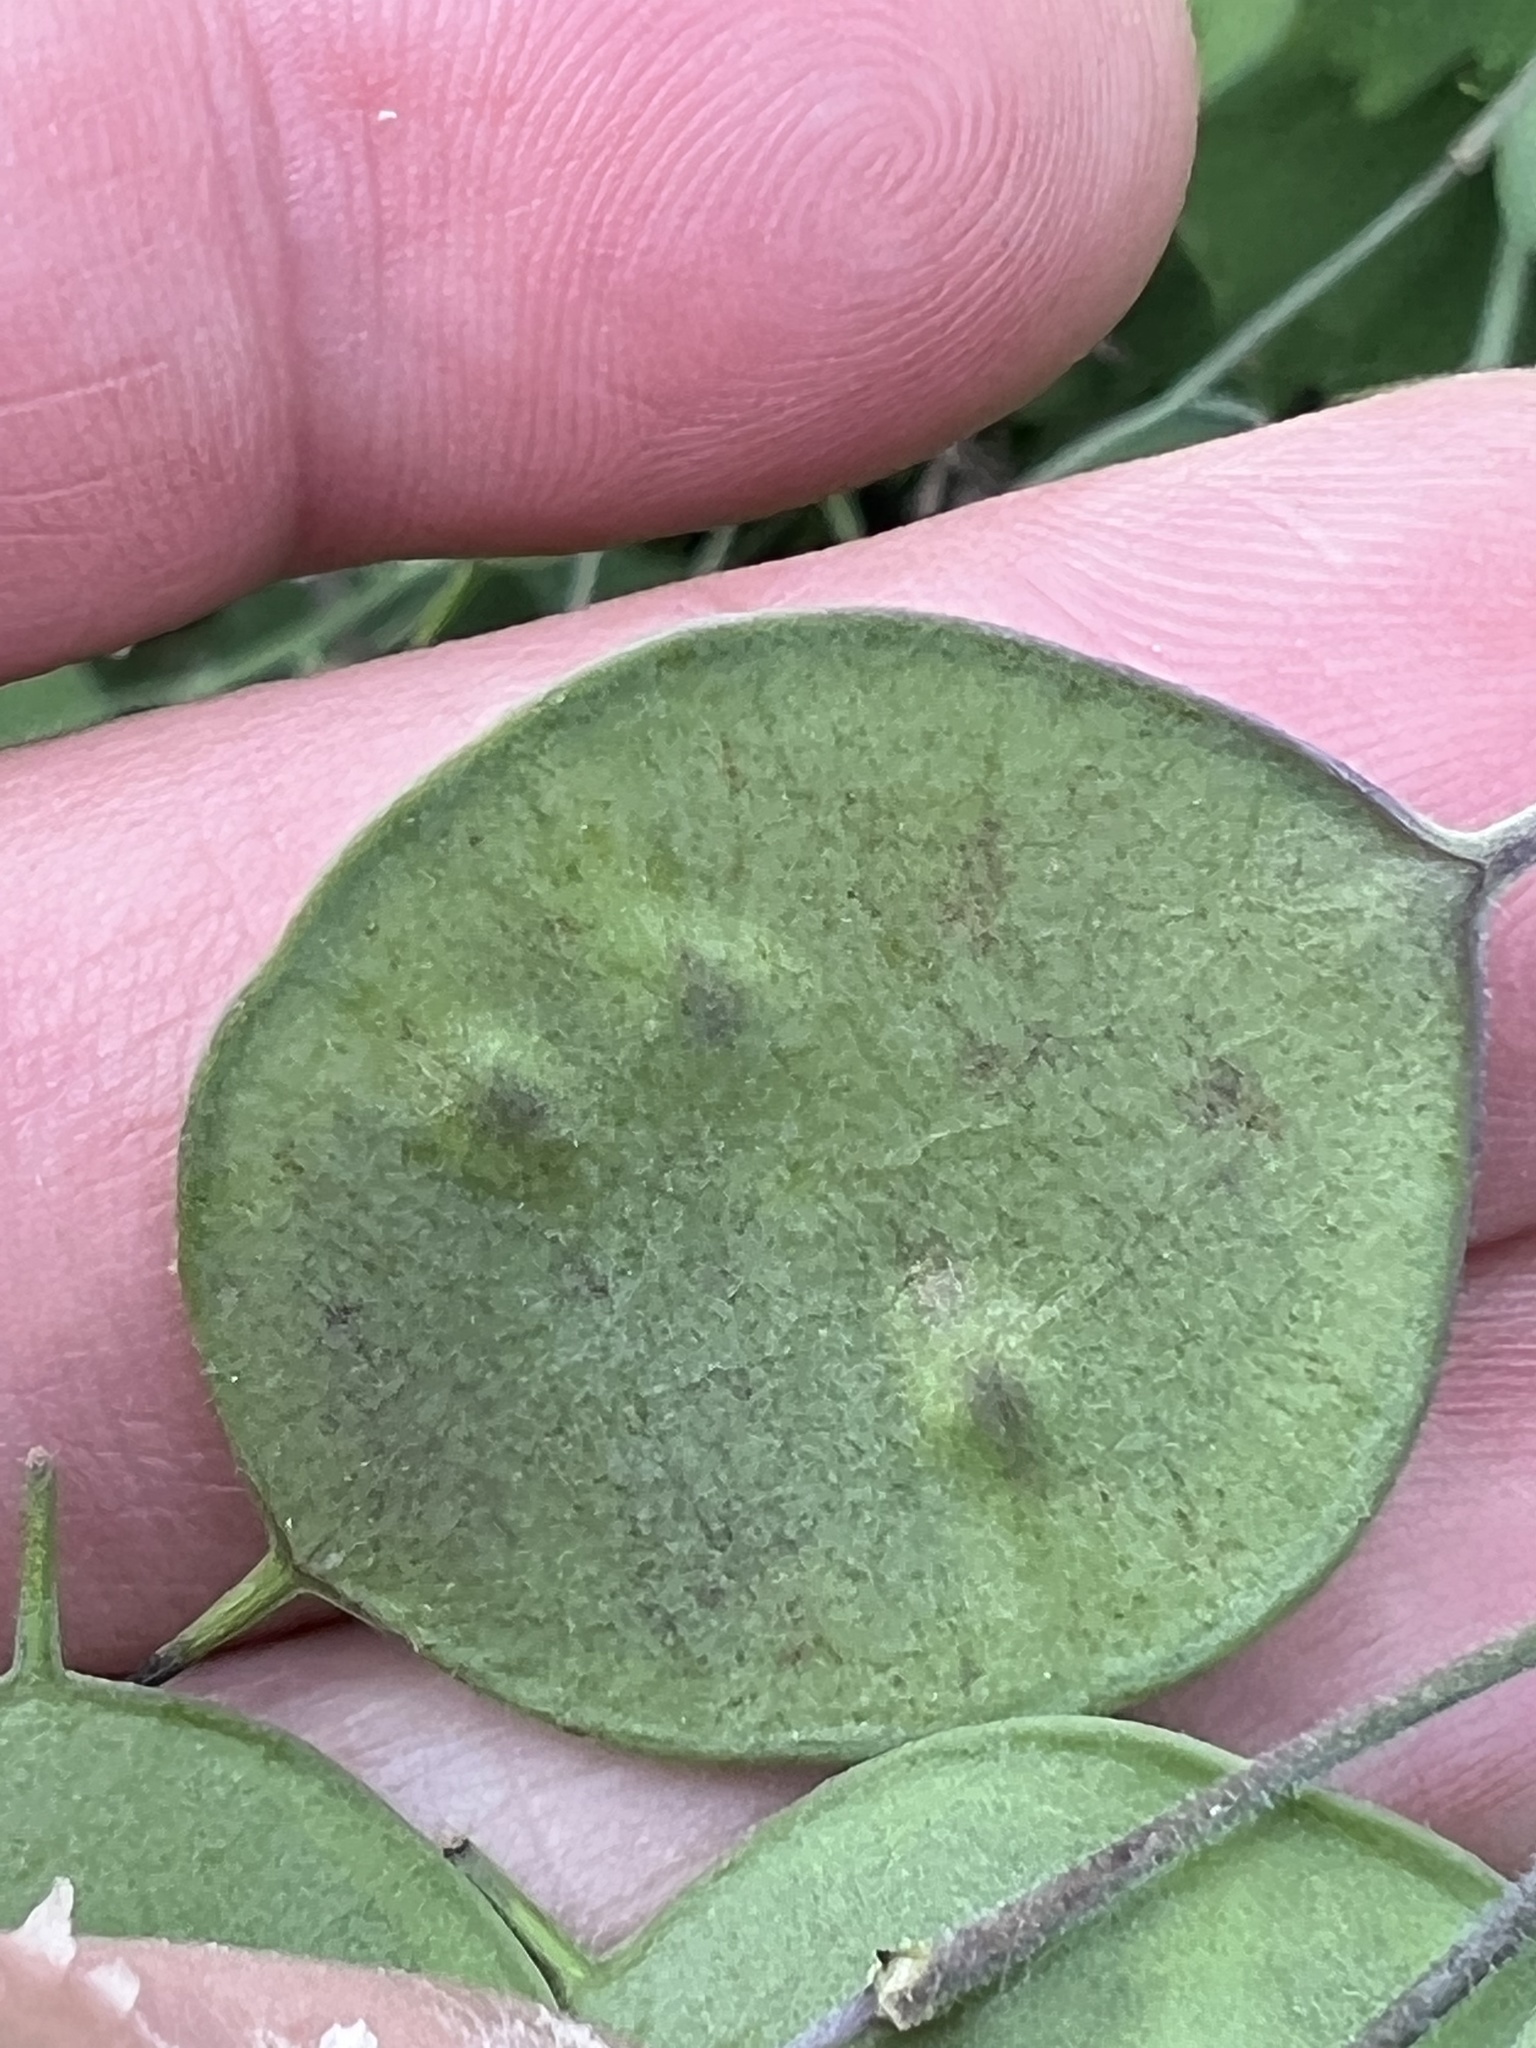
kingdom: Plantae
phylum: Tracheophyta
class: Magnoliopsida
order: Brassicales
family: Brassicaceae
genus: Lunaria
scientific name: Lunaria annua
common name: Honesty
